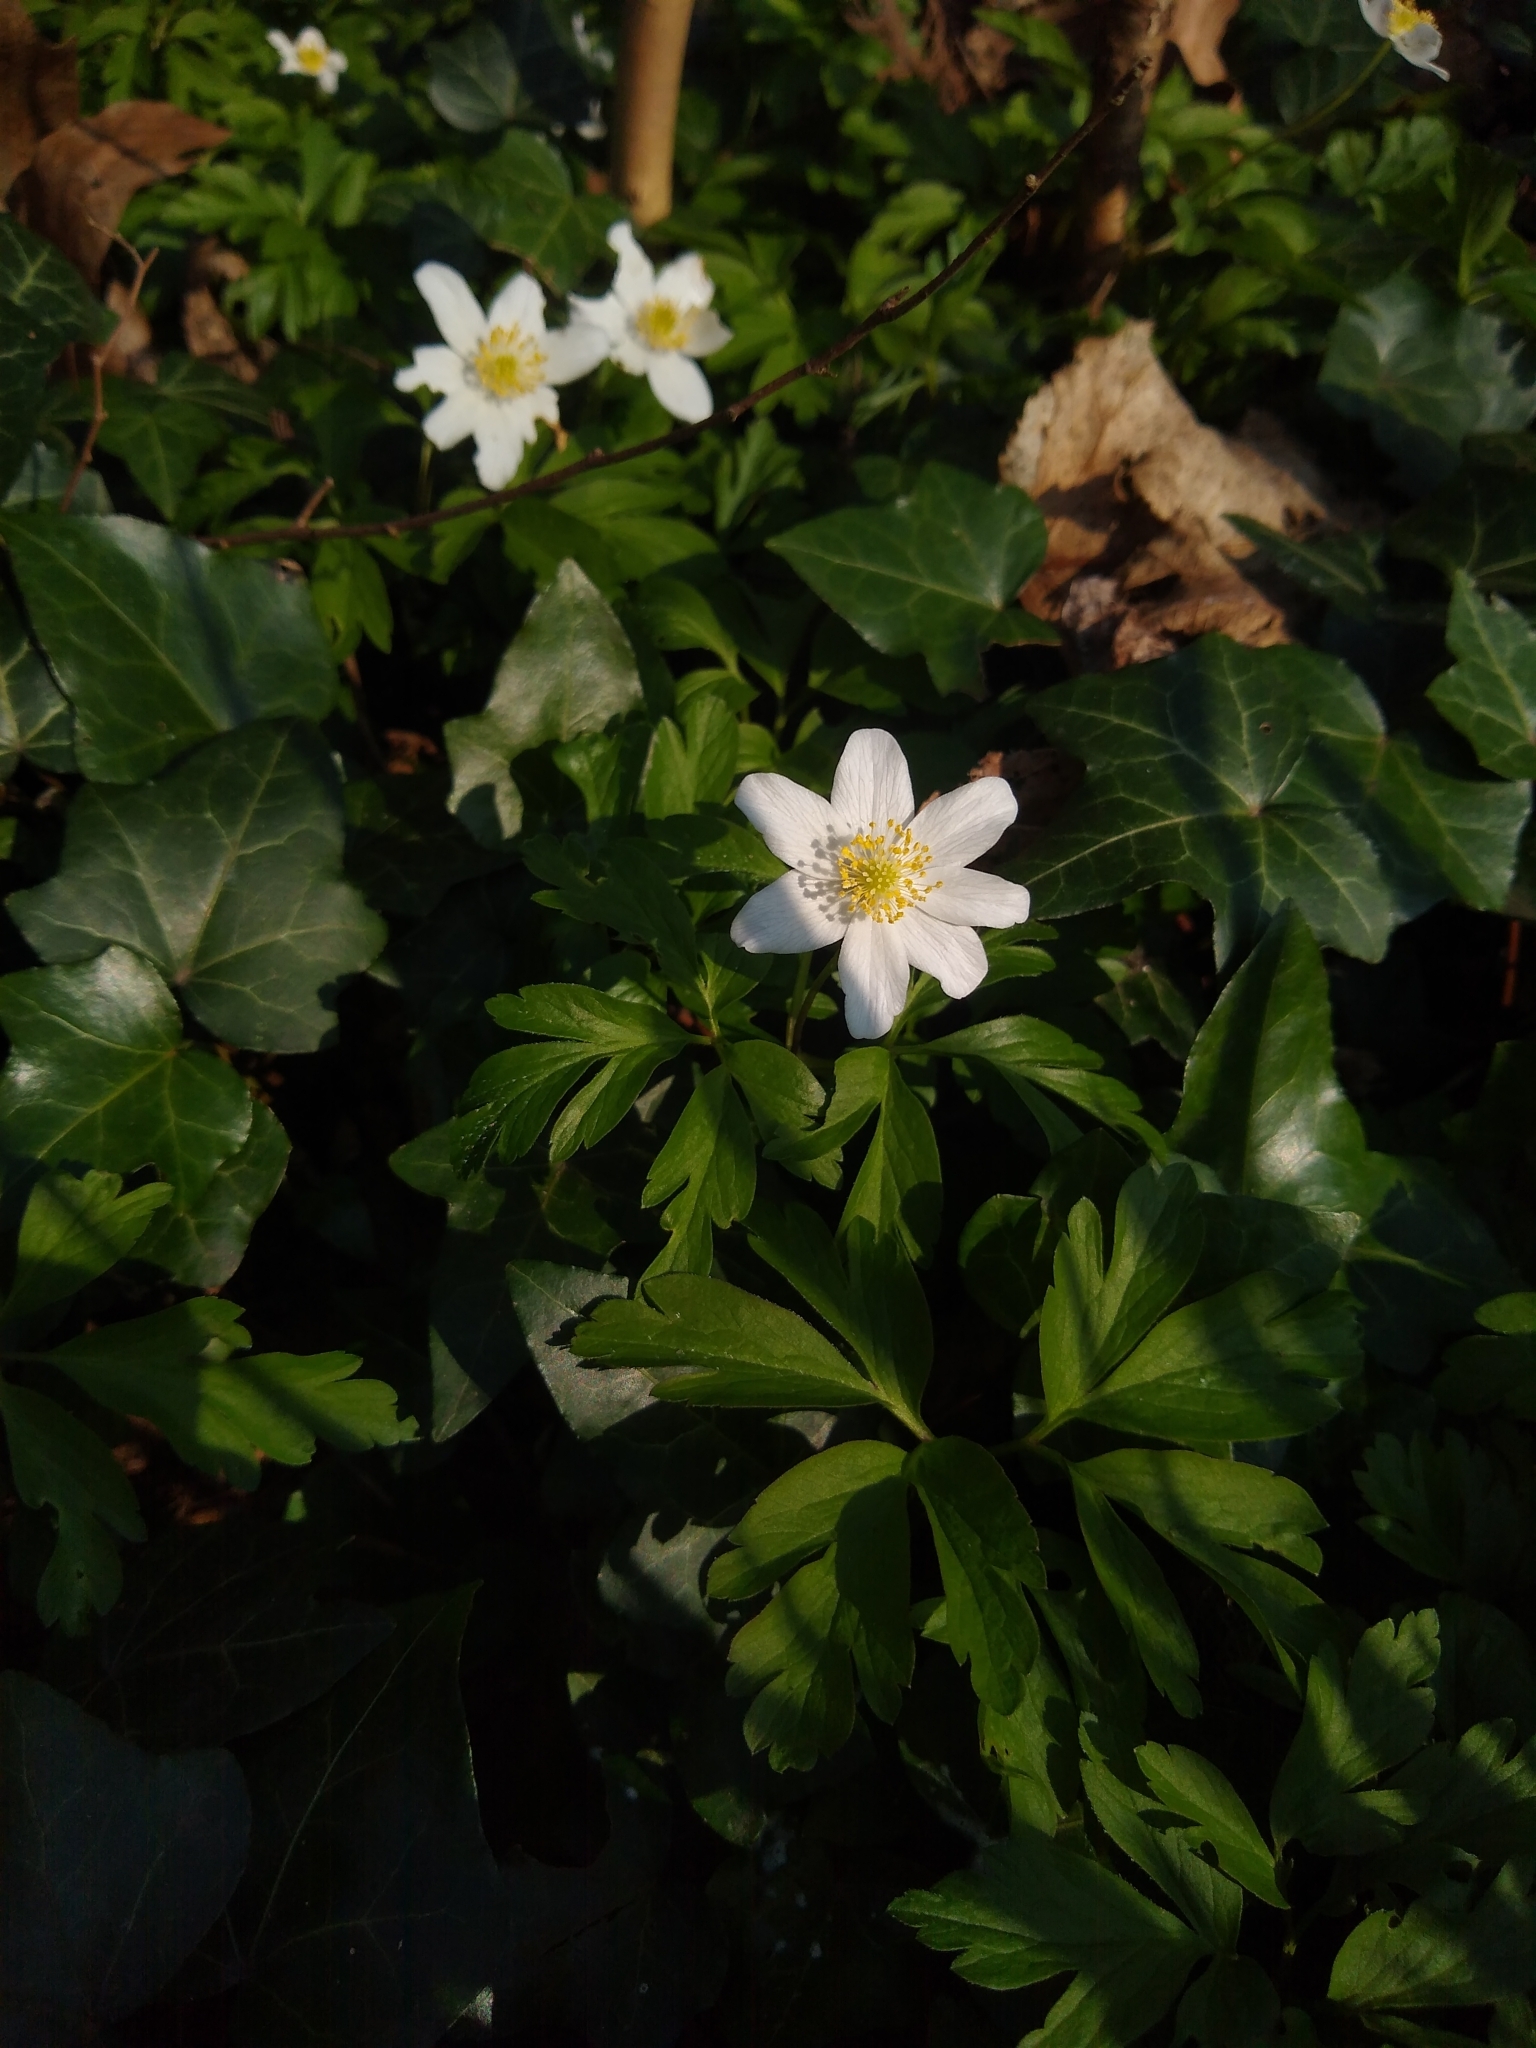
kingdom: Plantae
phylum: Tracheophyta
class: Magnoliopsida
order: Ranunculales
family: Ranunculaceae
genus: Anemone
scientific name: Anemone nemorosa
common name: Wood anemone
